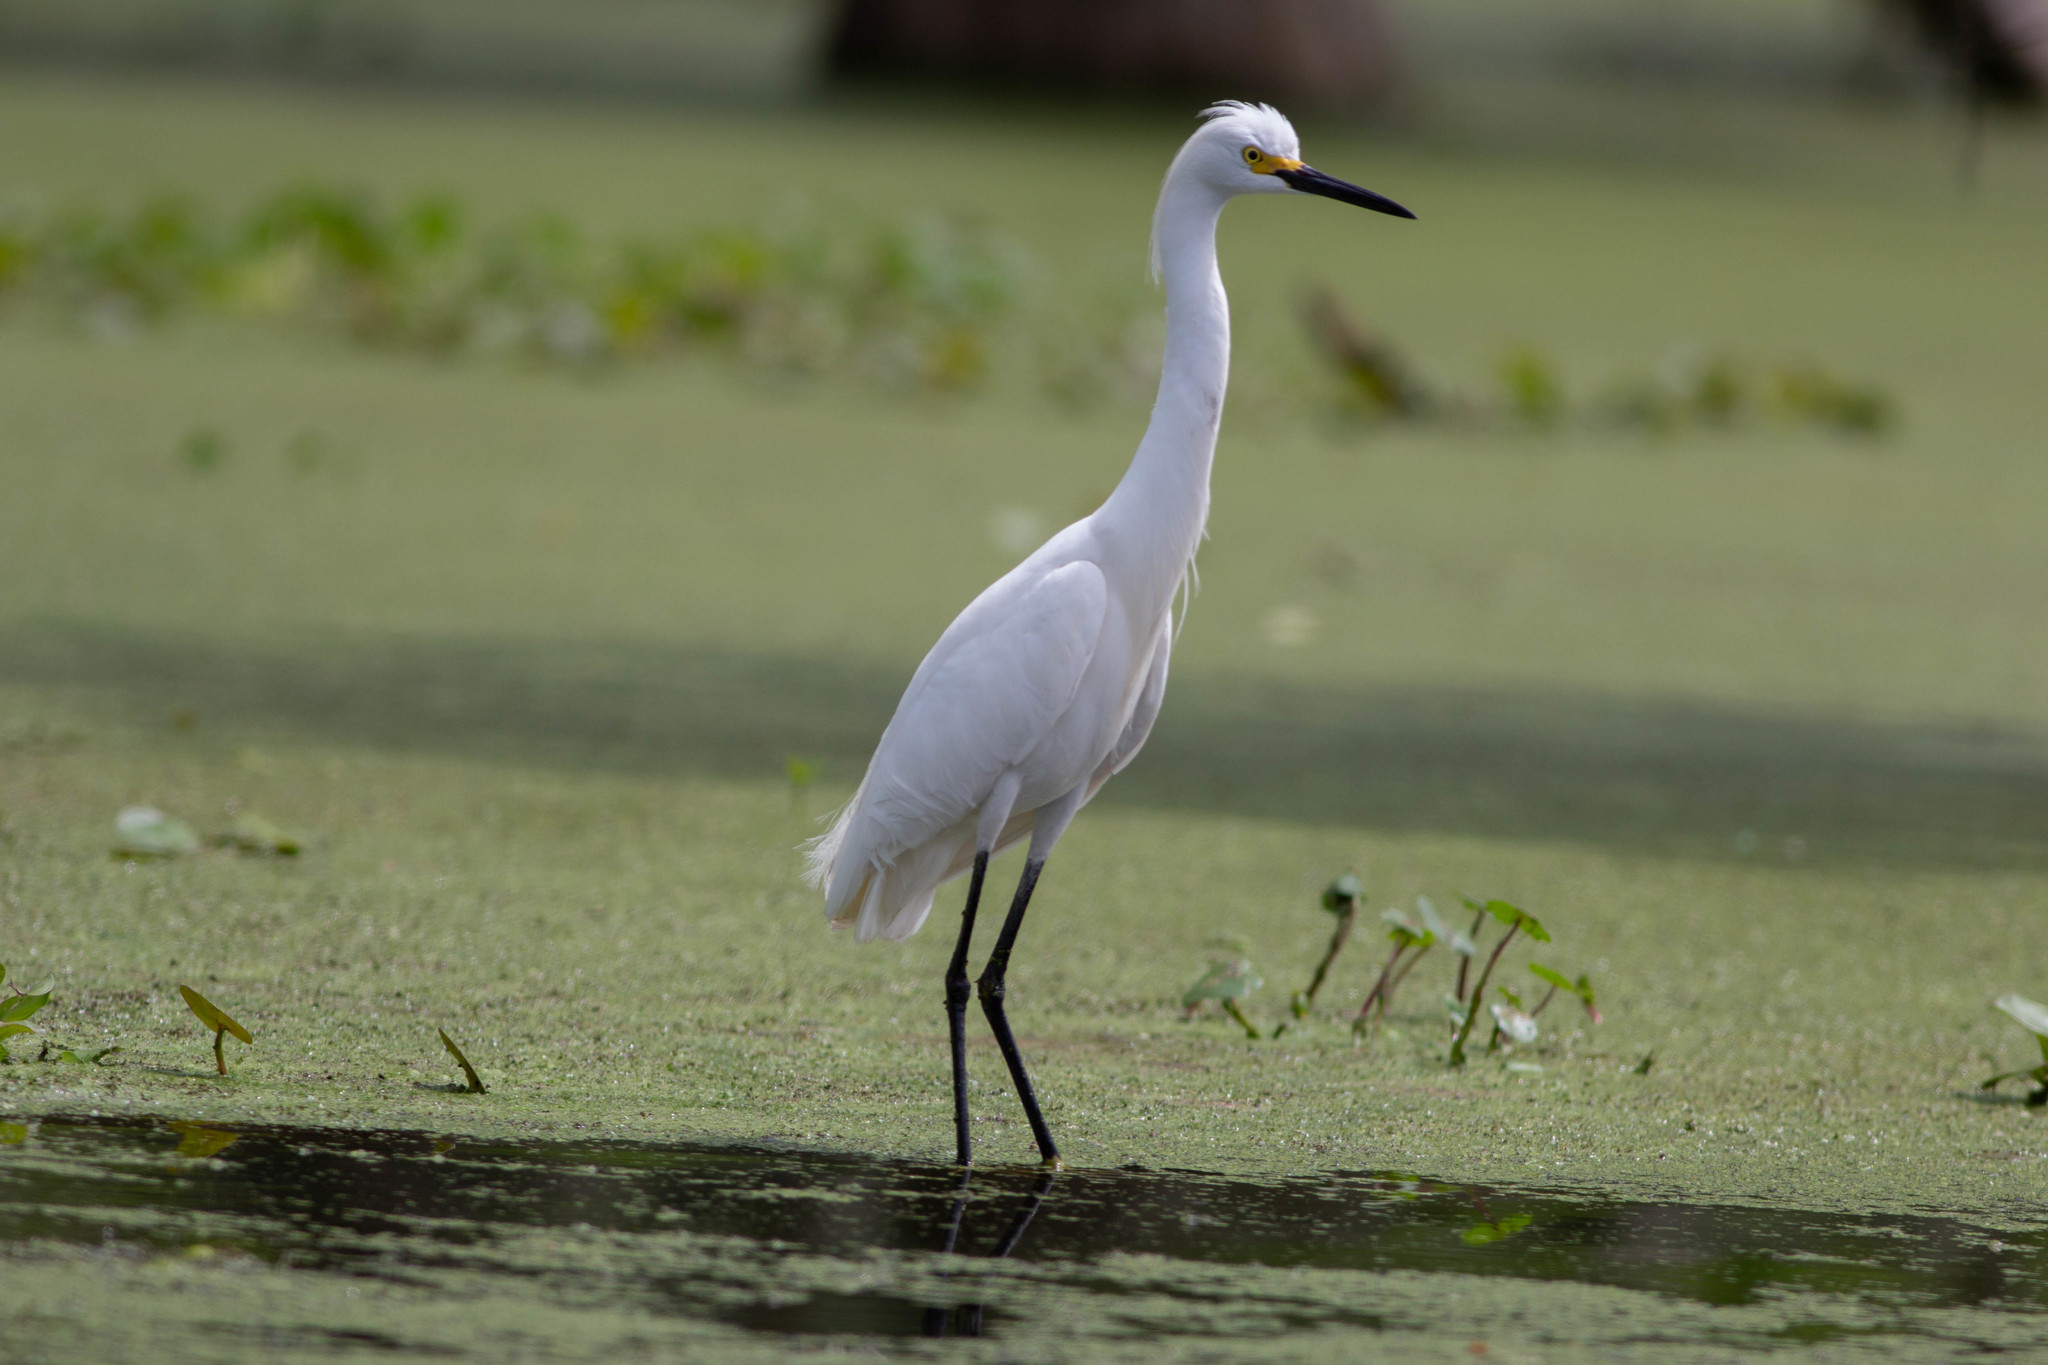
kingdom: Animalia
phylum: Chordata
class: Aves
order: Pelecaniformes
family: Ardeidae
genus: Egretta
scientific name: Egretta thula
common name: Snowy egret
